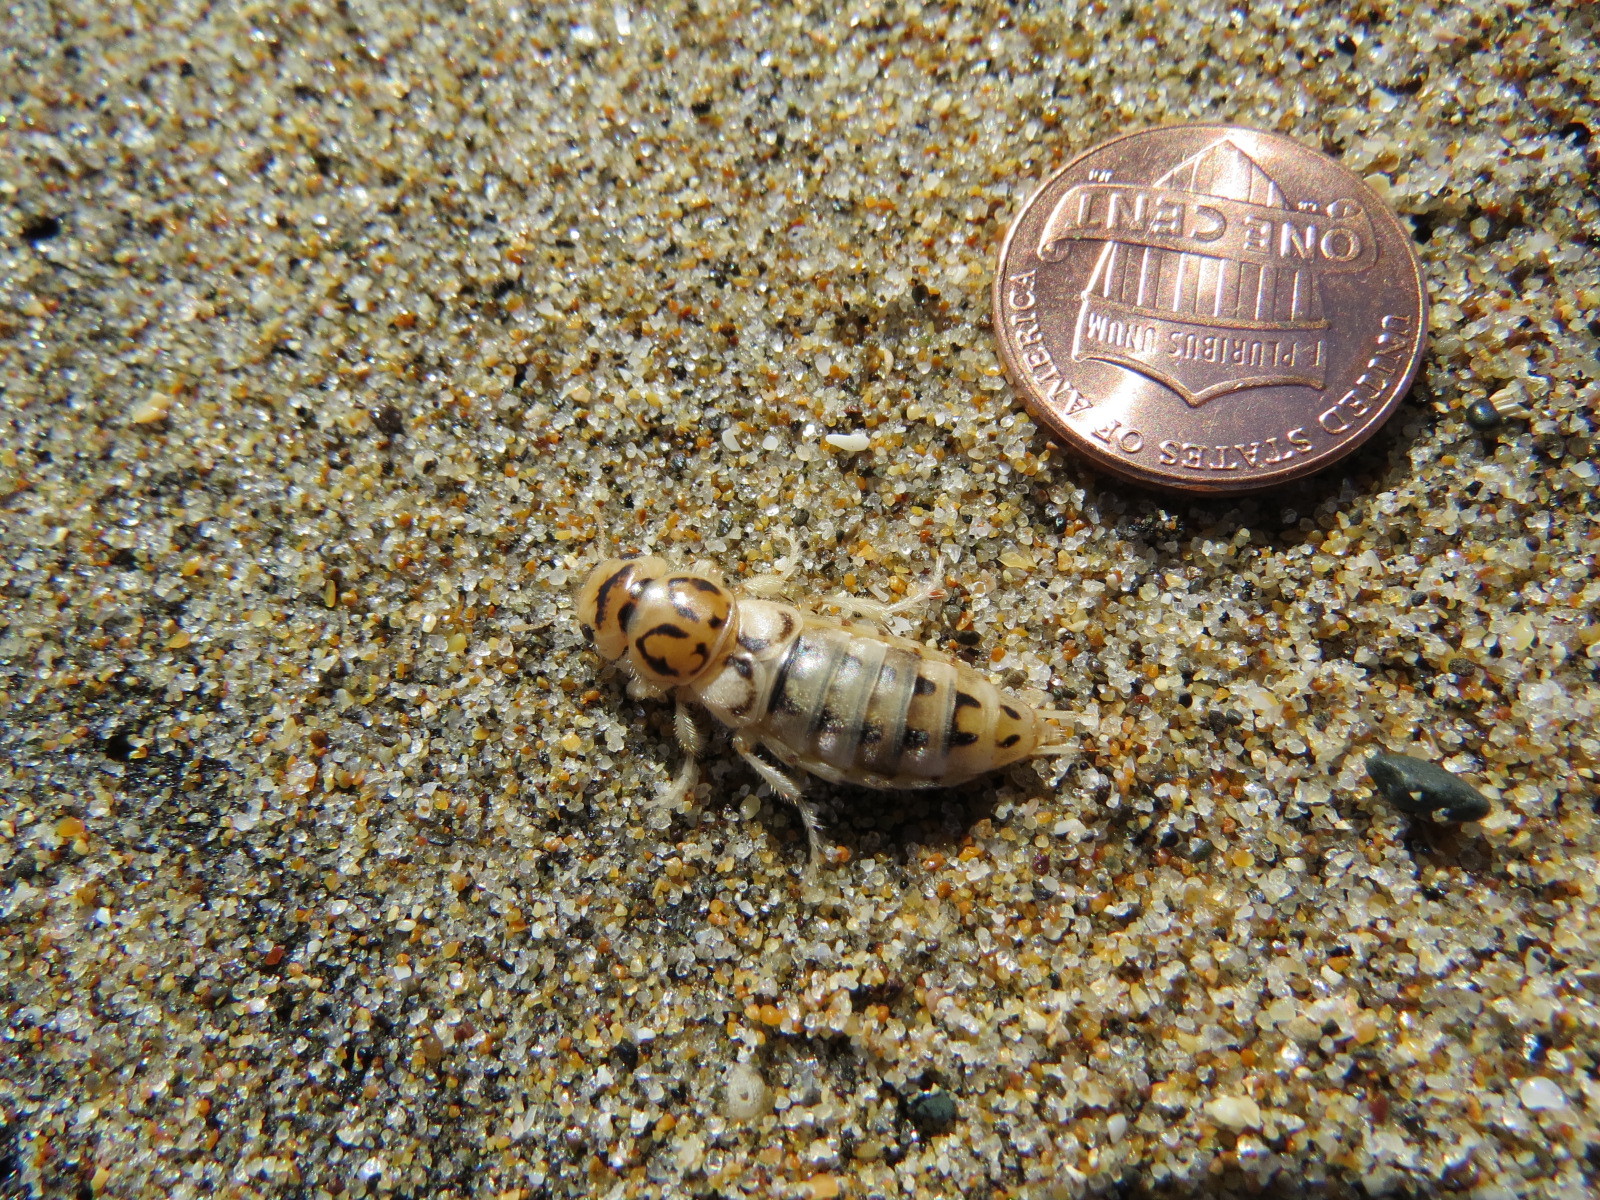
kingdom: Animalia
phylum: Arthropoda
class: Insecta
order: Coleoptera
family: Staphylinidae
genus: Thinopinus
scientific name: Thinopinus pictus
